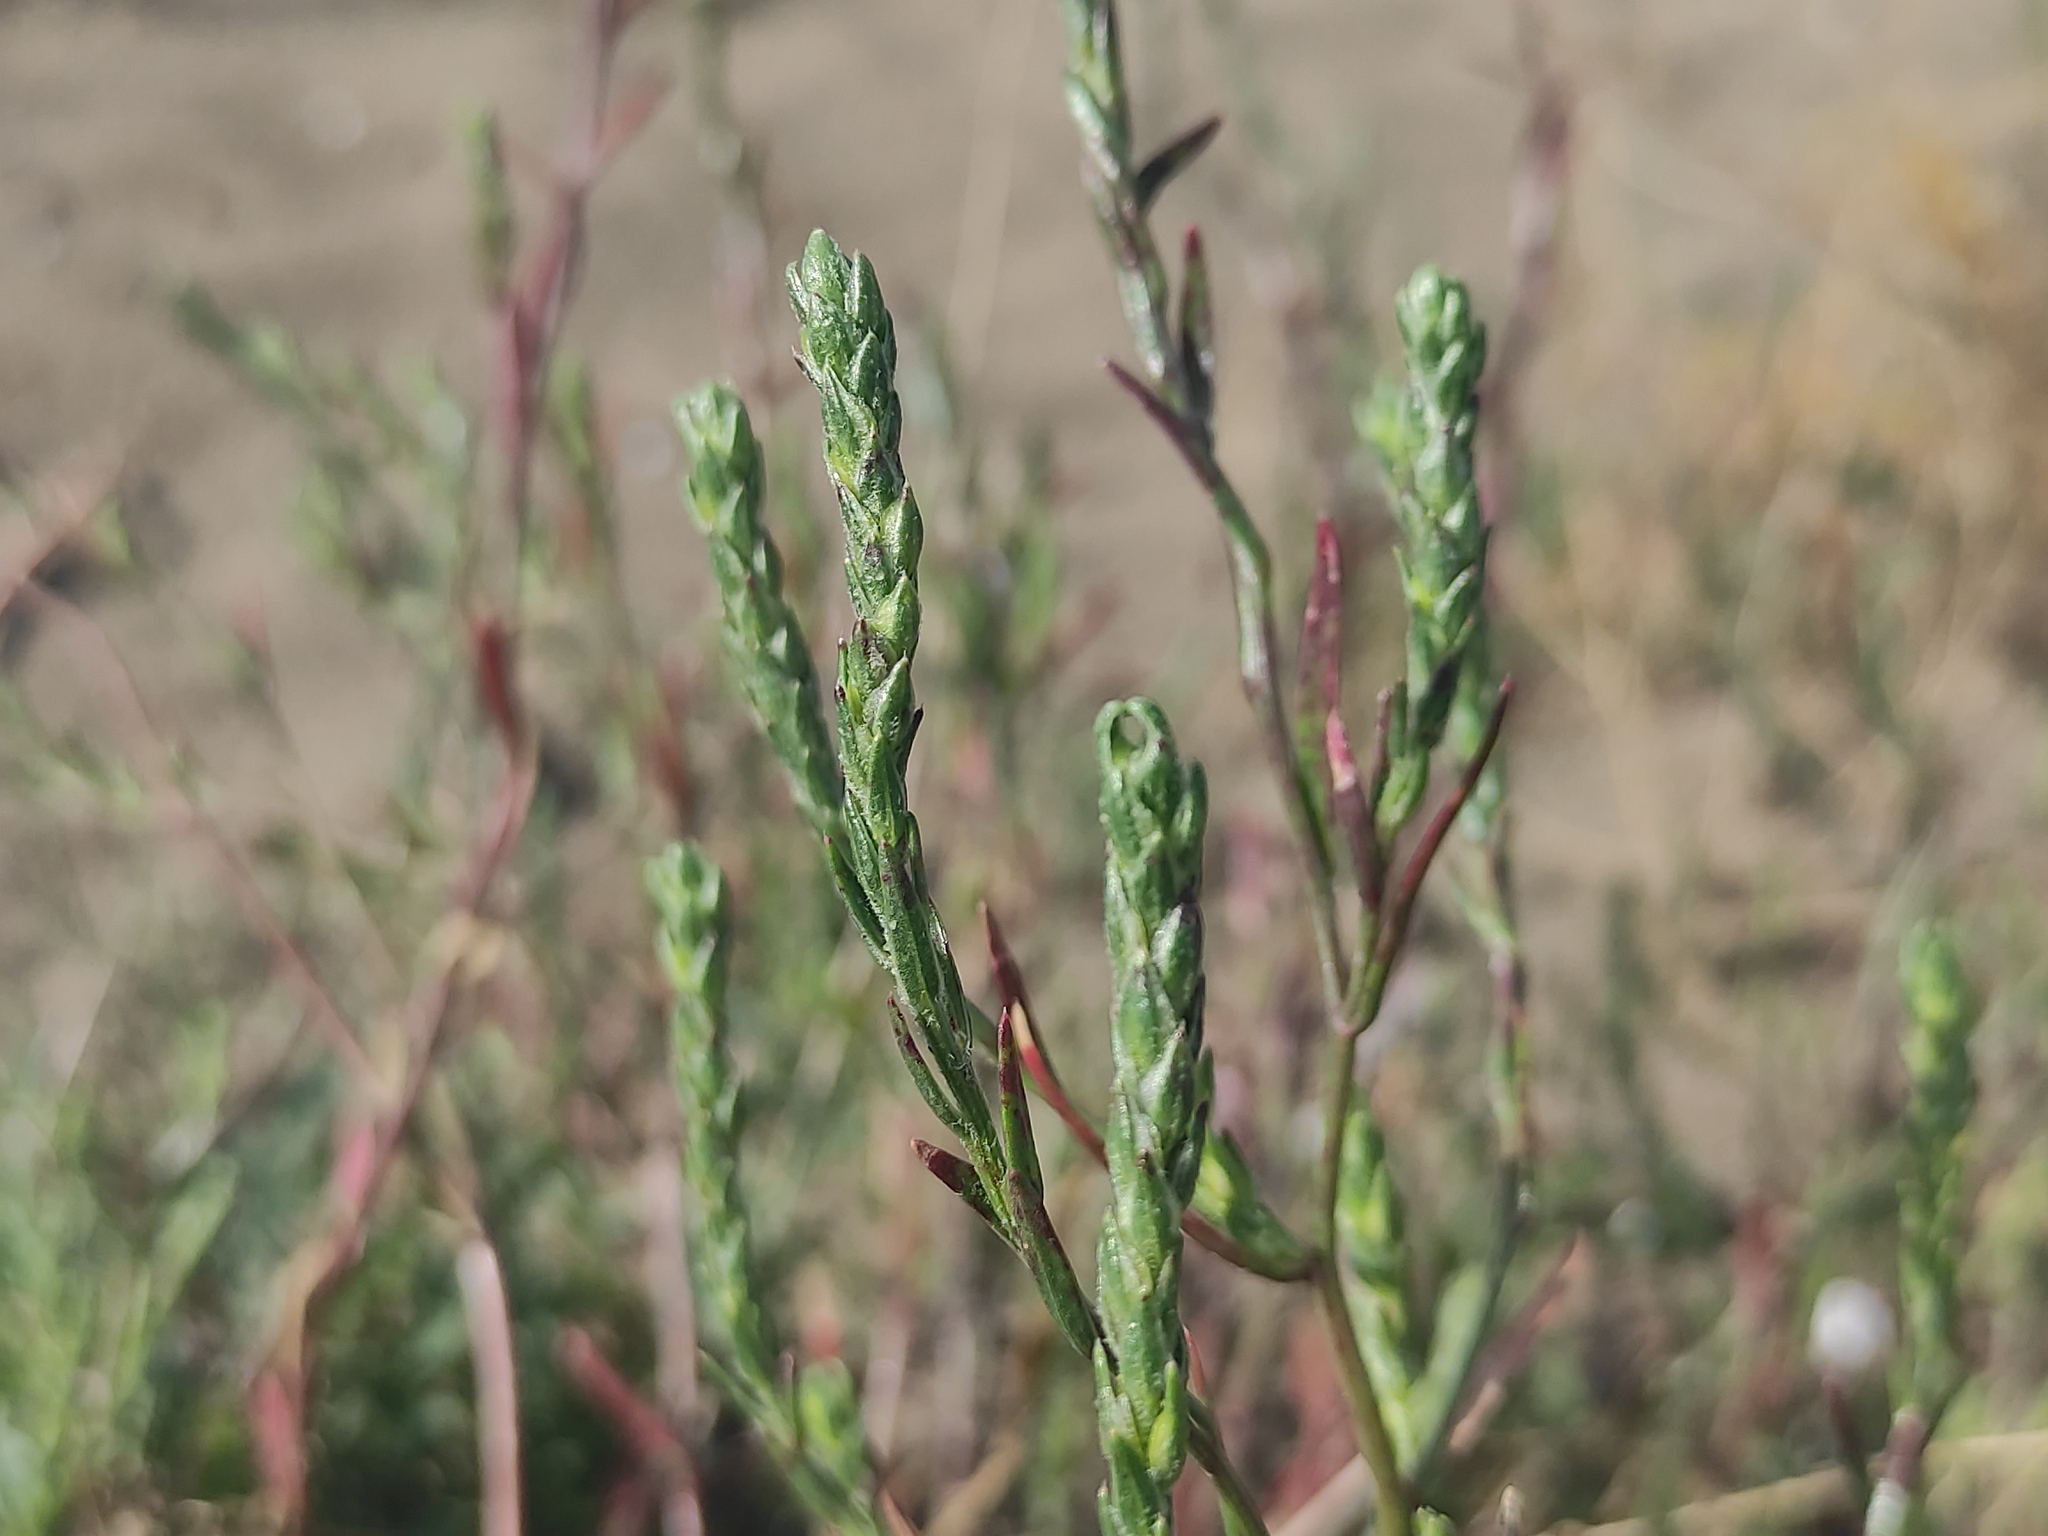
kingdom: Plantae
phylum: Tracheophyta
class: Magnoliopsida
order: Caryophyllales
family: Amaranthaceae
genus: Corispermum
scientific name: Corispermum gallicum
